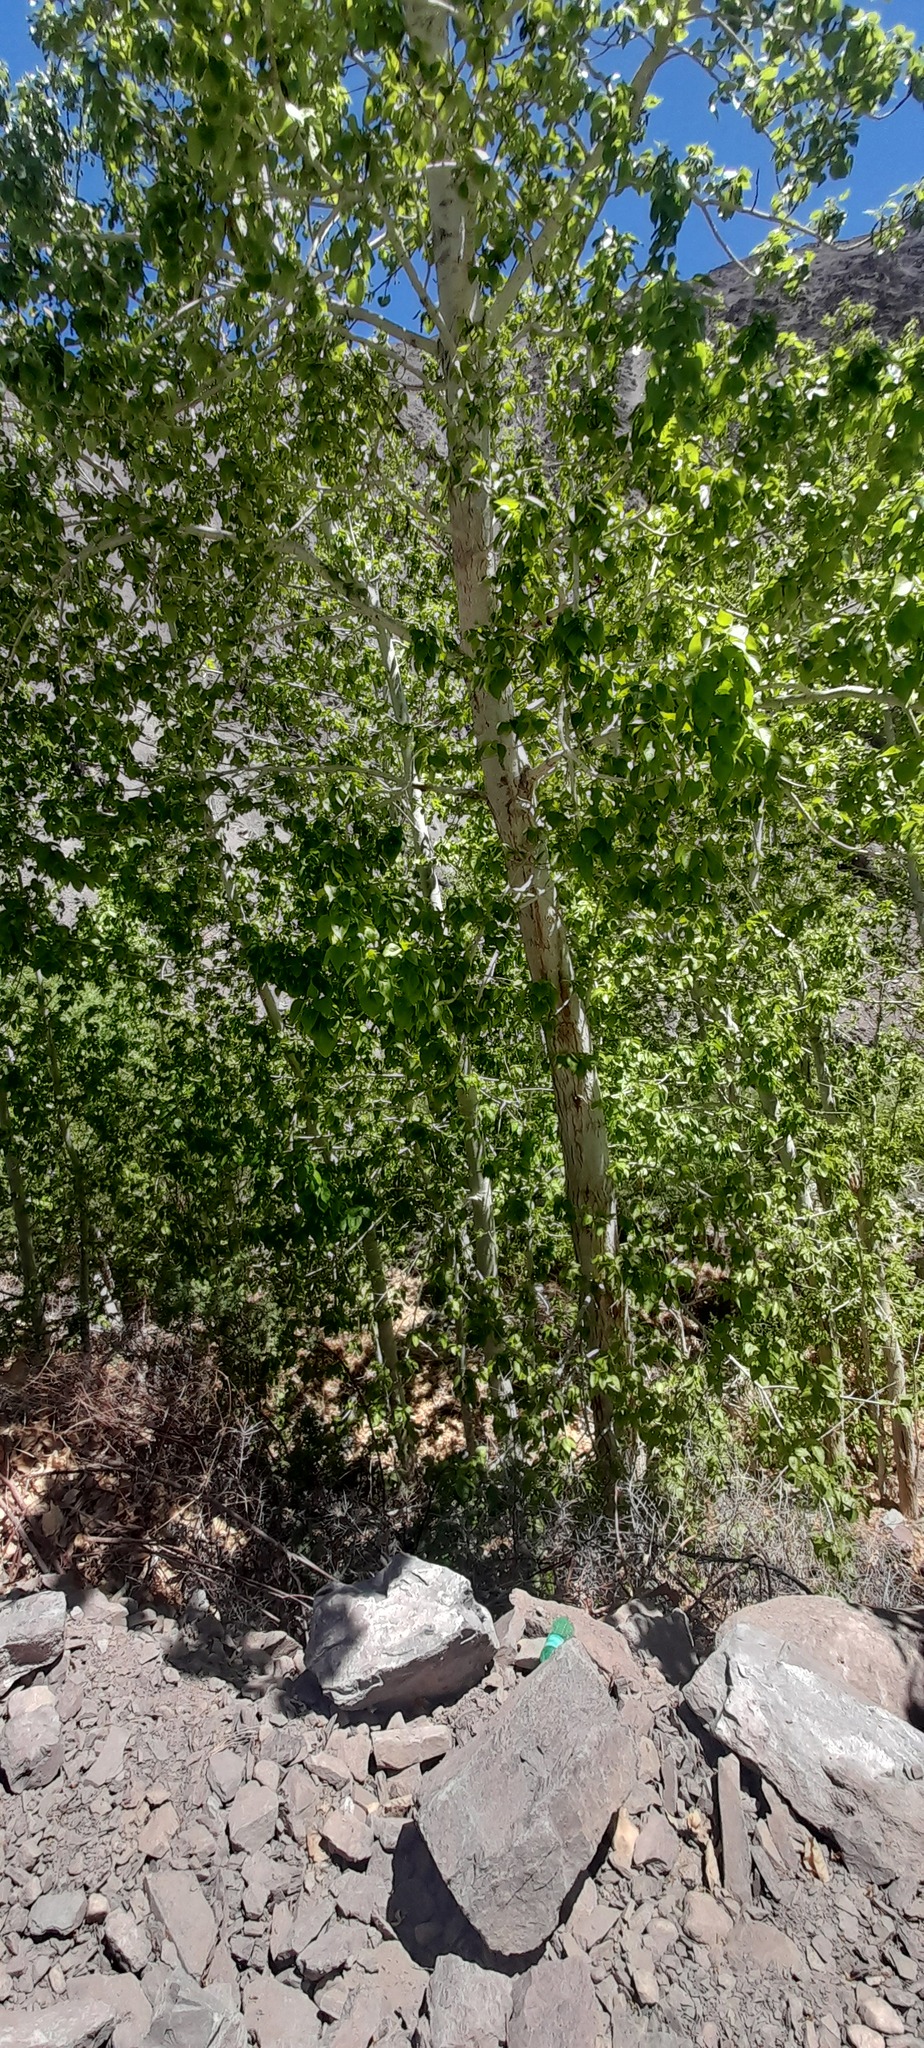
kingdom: Plantae
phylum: Tracheophyta
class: Magnoliopsida
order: Malpighiales
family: Salicaceae
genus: Populus
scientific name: Populus ciliata
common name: Himalayan poplar
